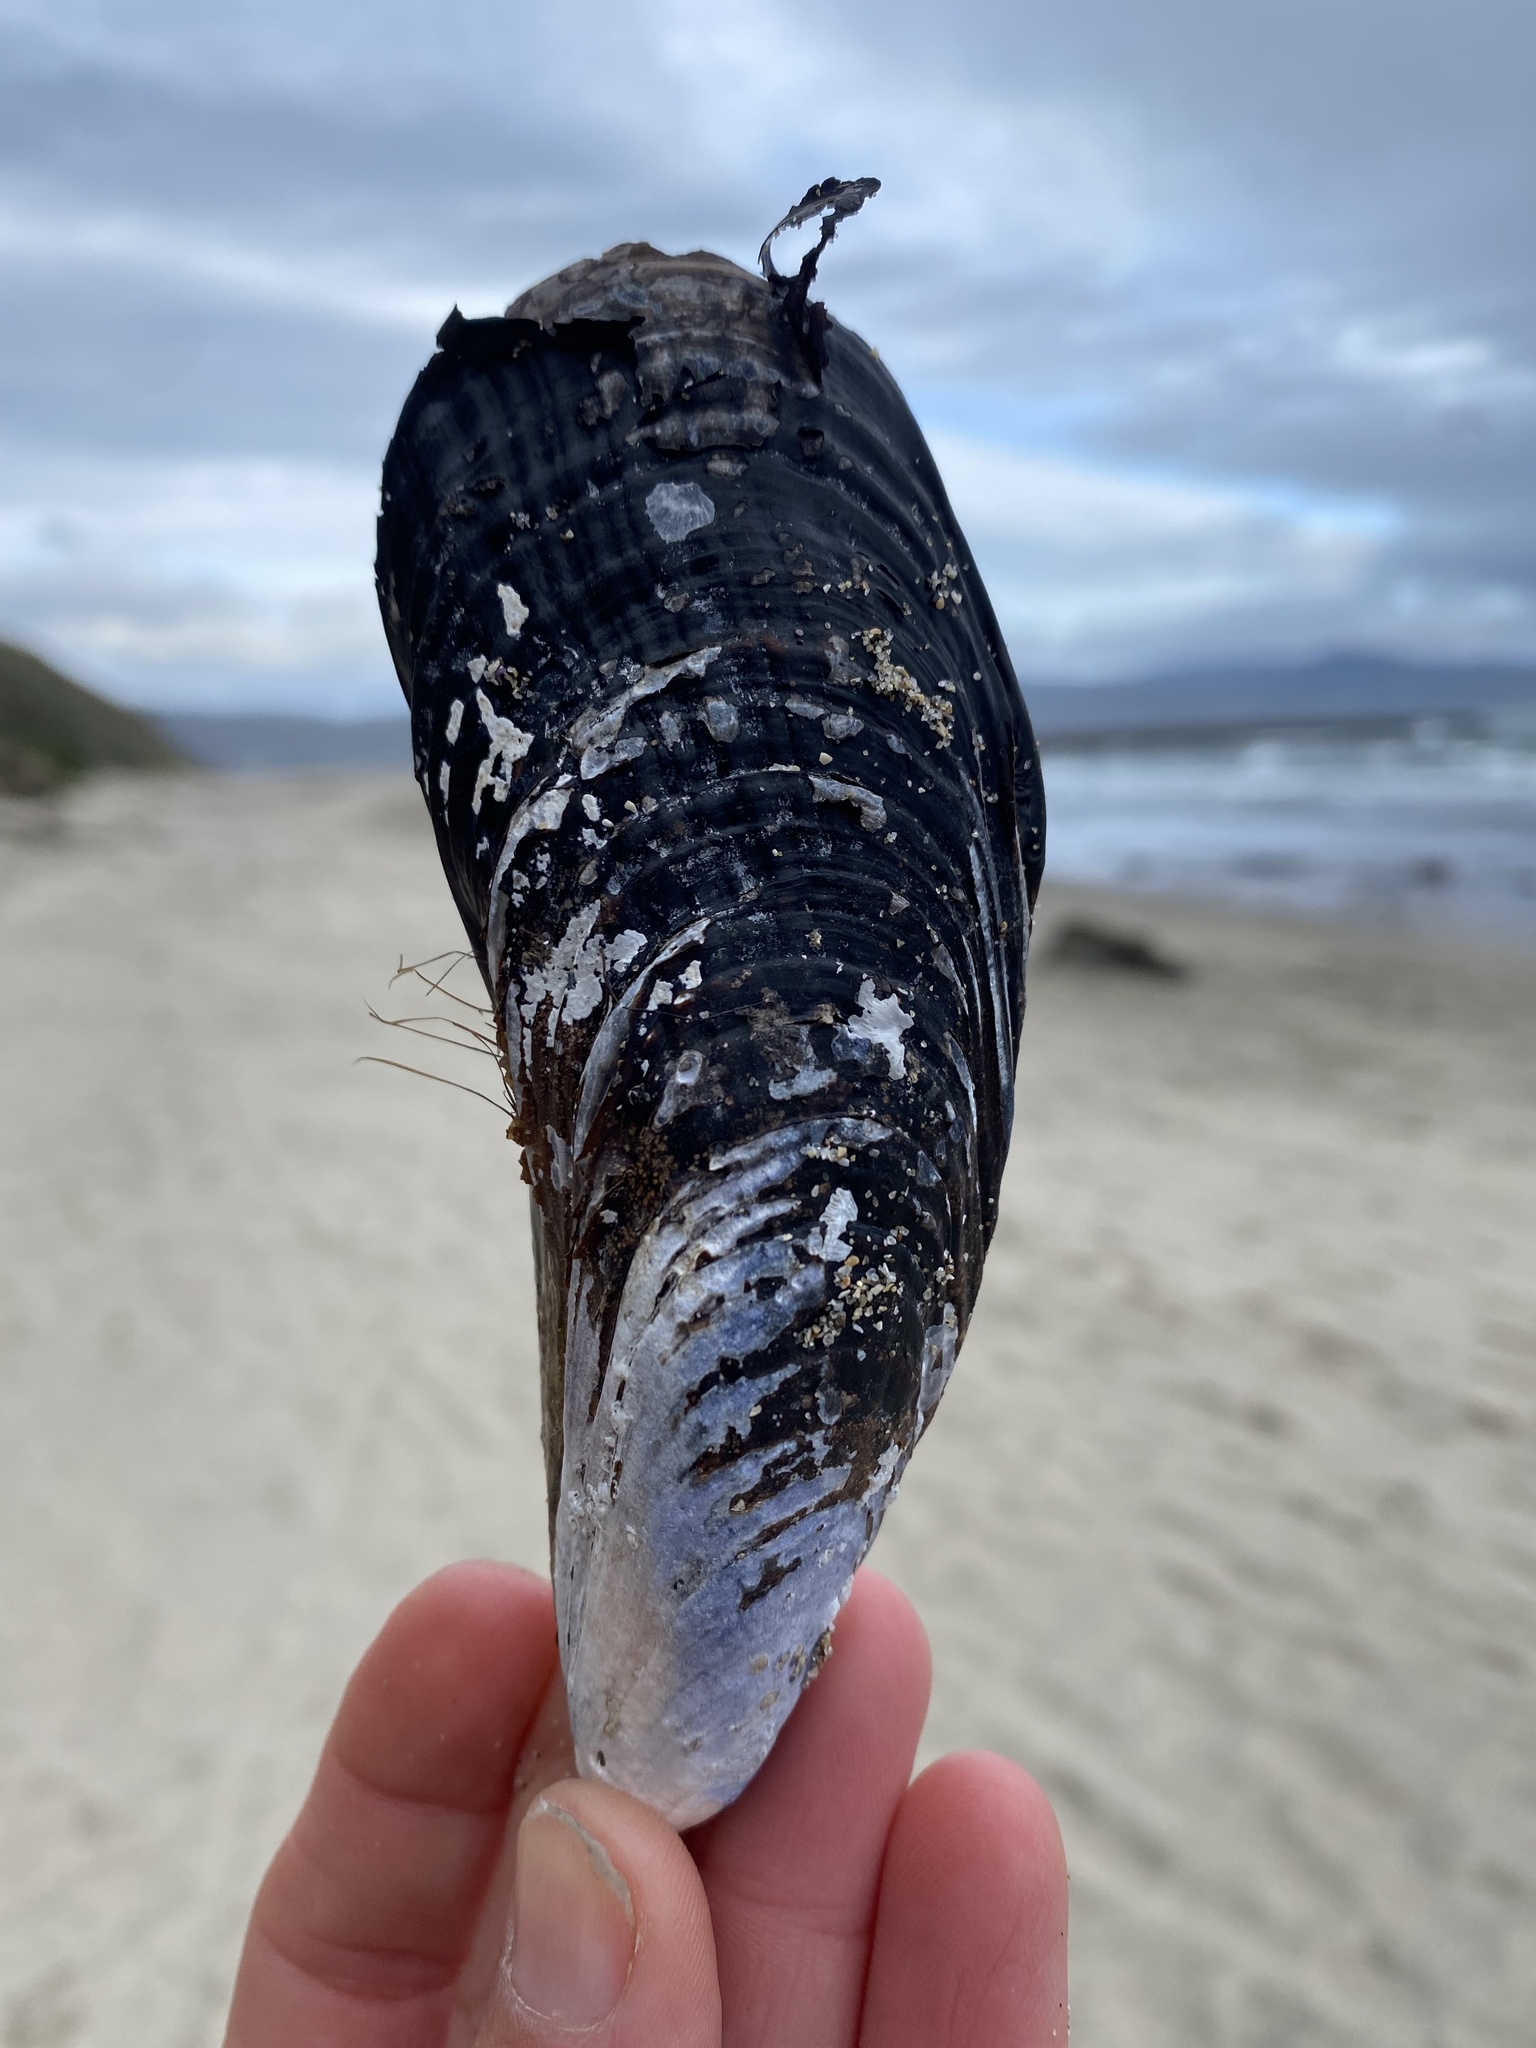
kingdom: Animalia
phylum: Mollusca
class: Bivalvia
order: Mytilida
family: Mytilidae
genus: Mytilus
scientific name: Mytilus californianus
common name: California mussel
